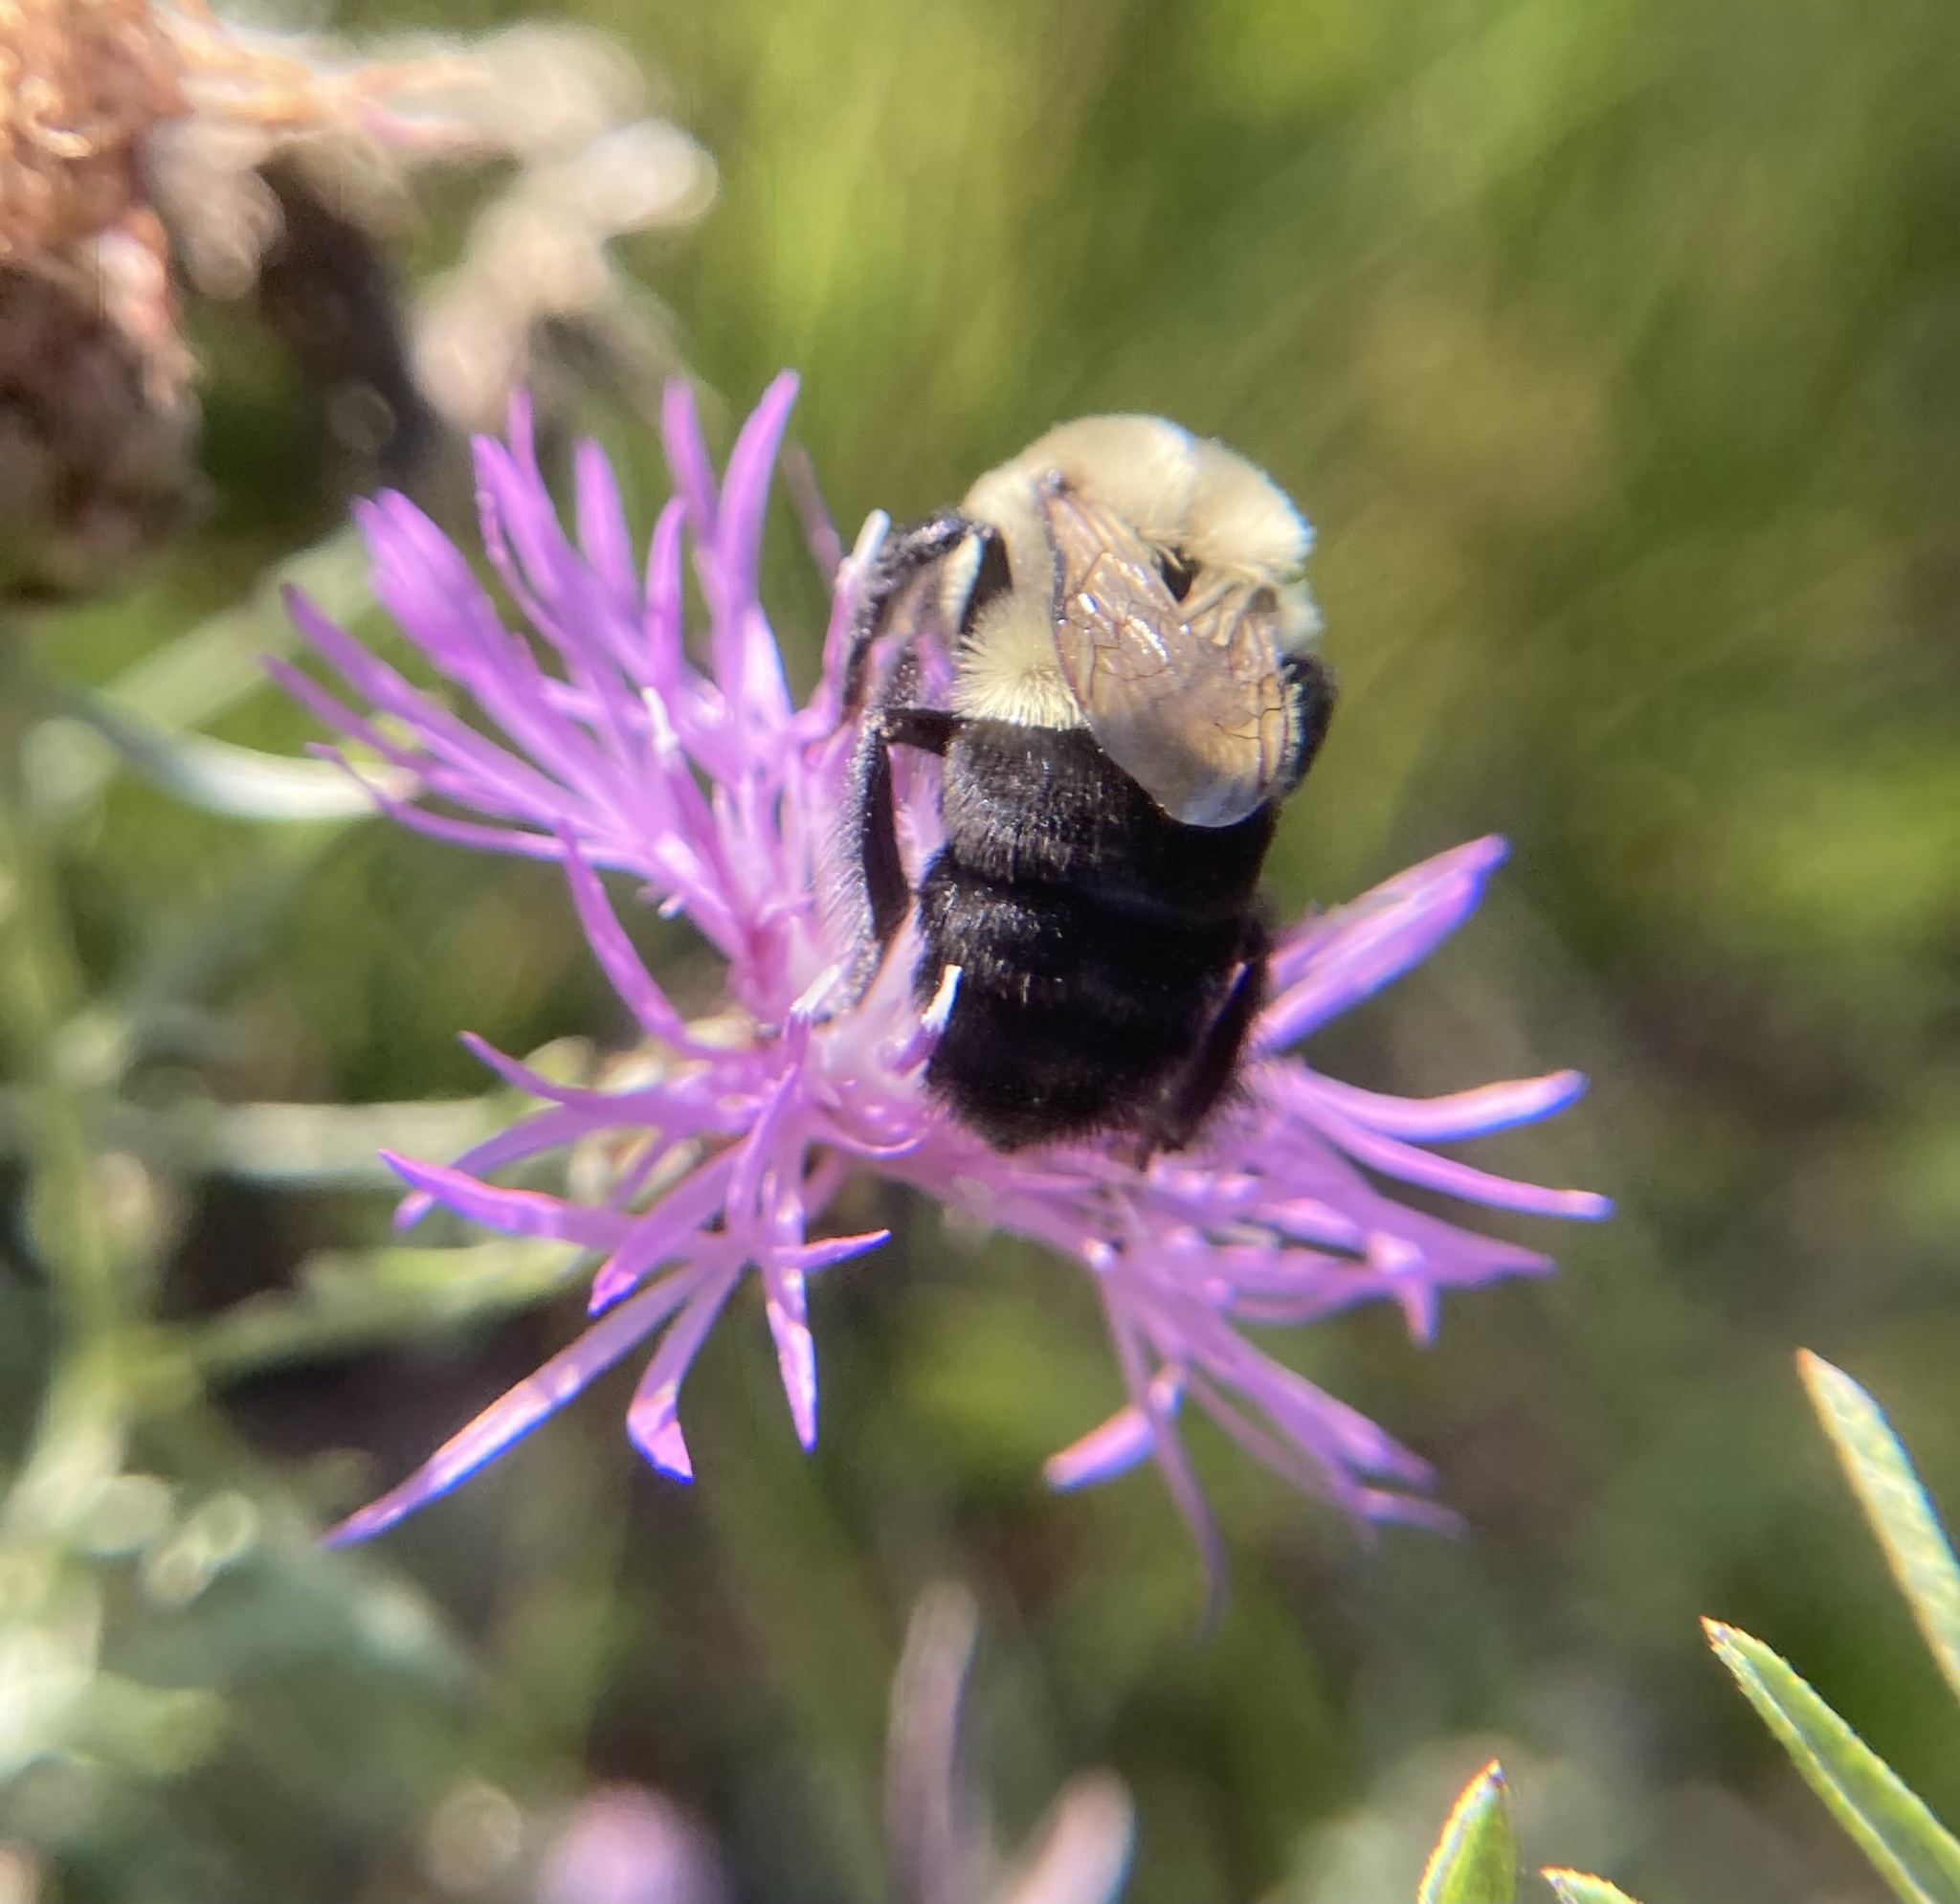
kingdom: Animalia
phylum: Arthropoda
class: Insecta
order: Hymenoptera
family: Apidae
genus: Bombus
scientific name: Bombus impatiens
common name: Common eastern bumble bee
